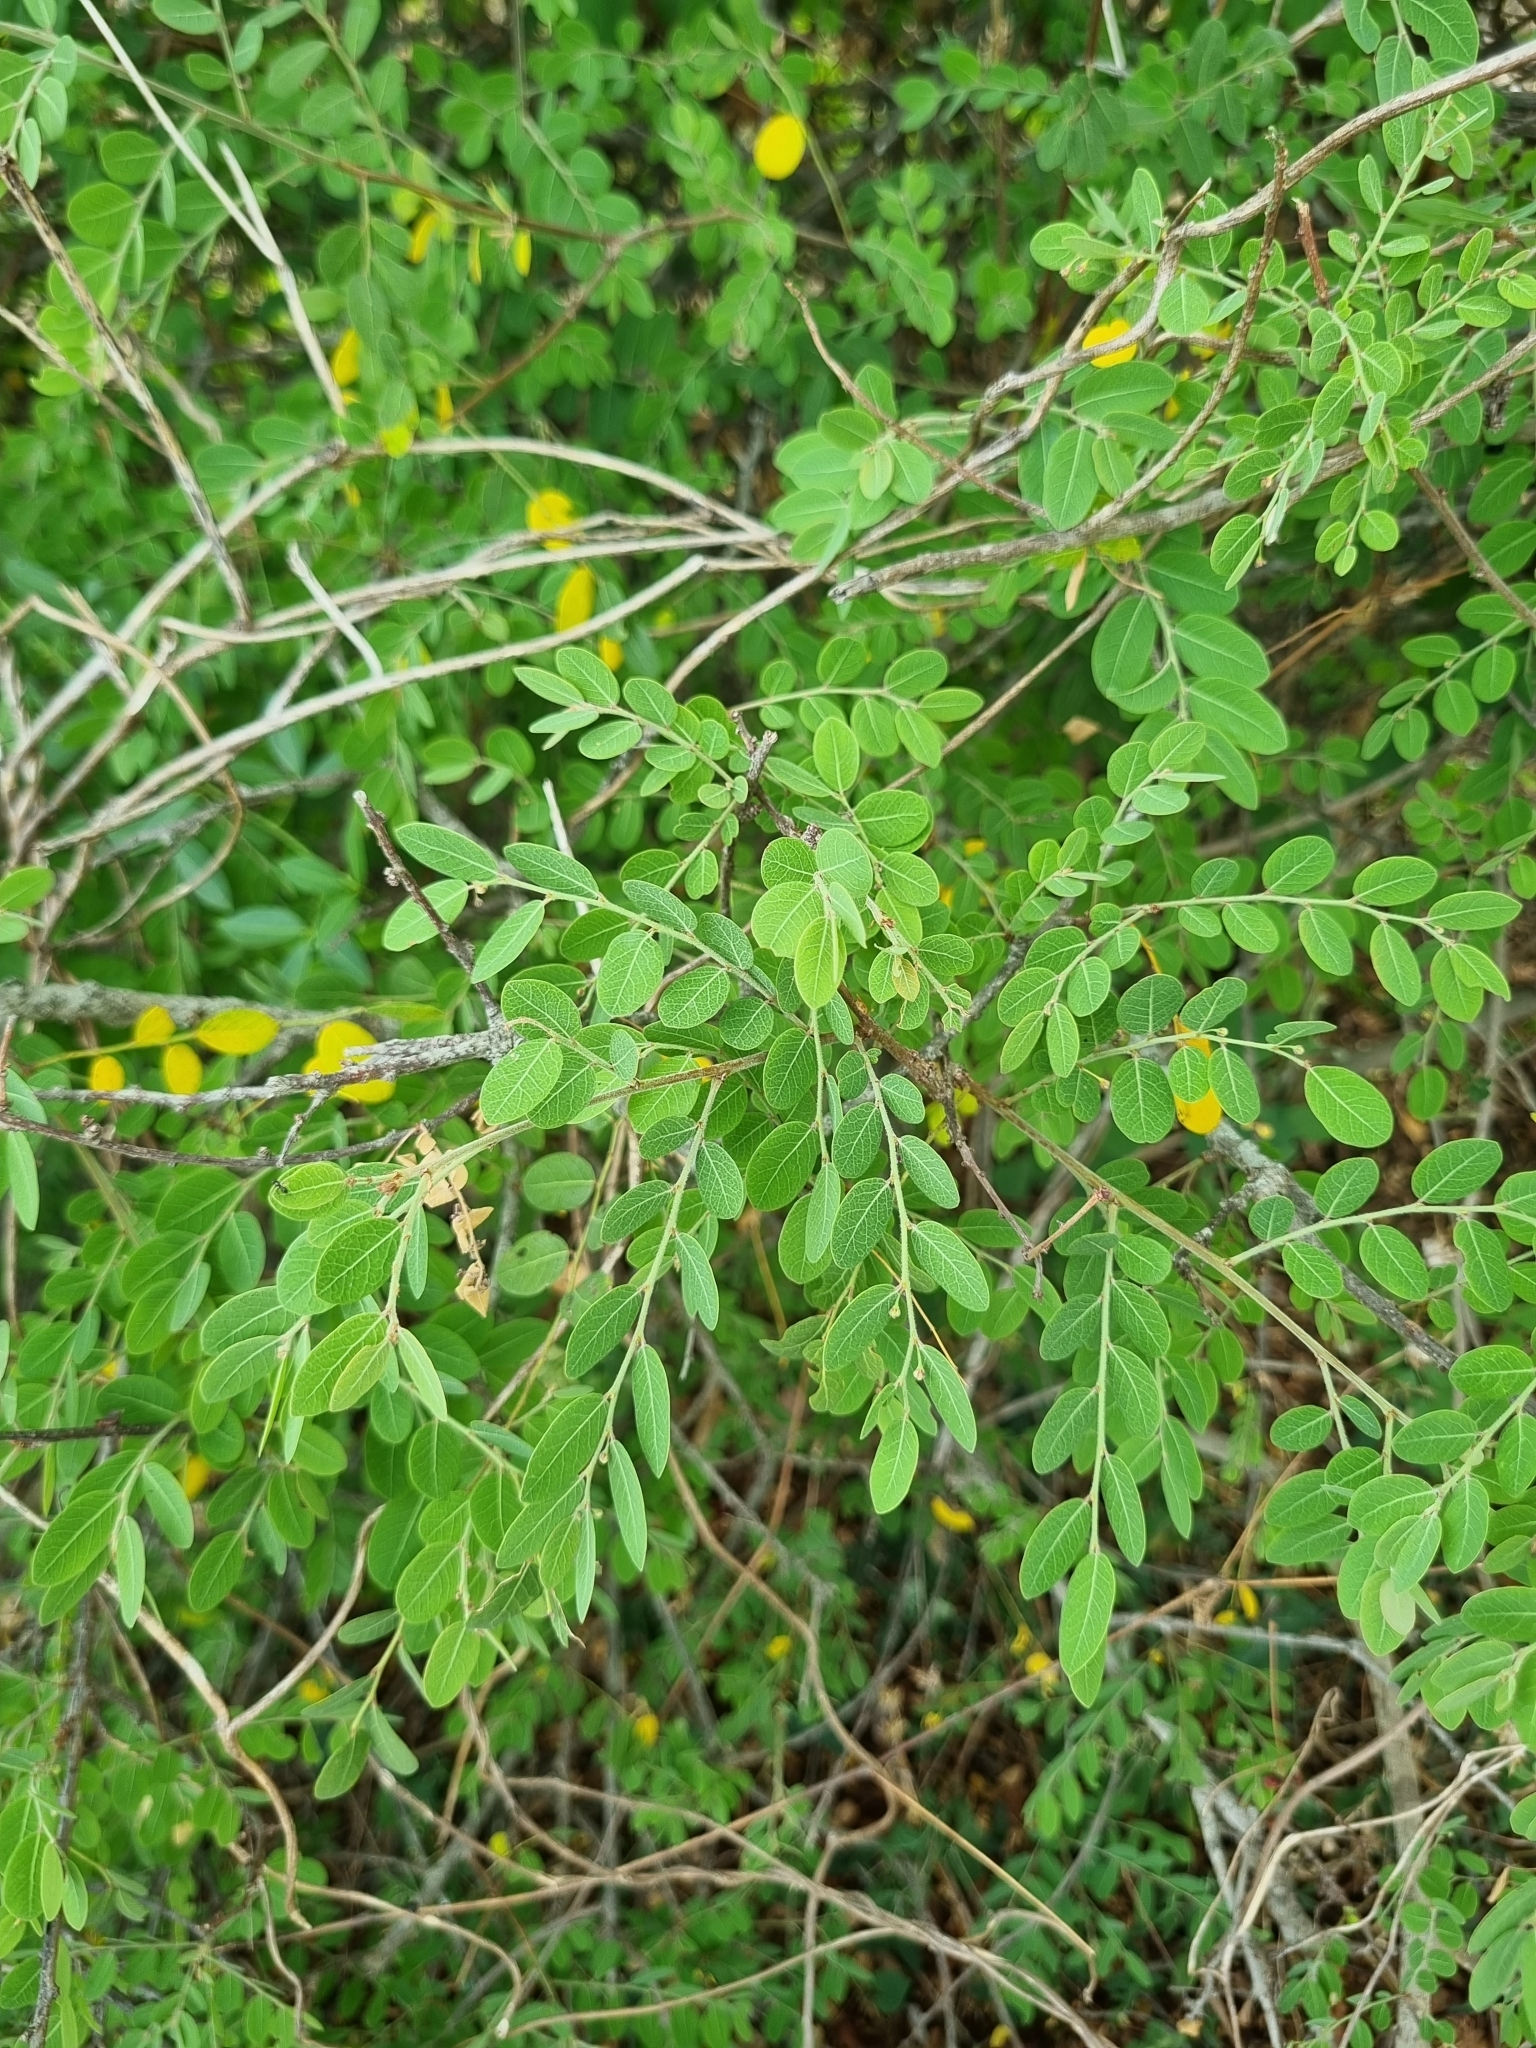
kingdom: Plantae
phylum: Tracheophyta
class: Magnoliopsida
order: Malpighiales
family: Phyllanthaceae
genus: Breynia
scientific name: Breynia vitis-idaea
